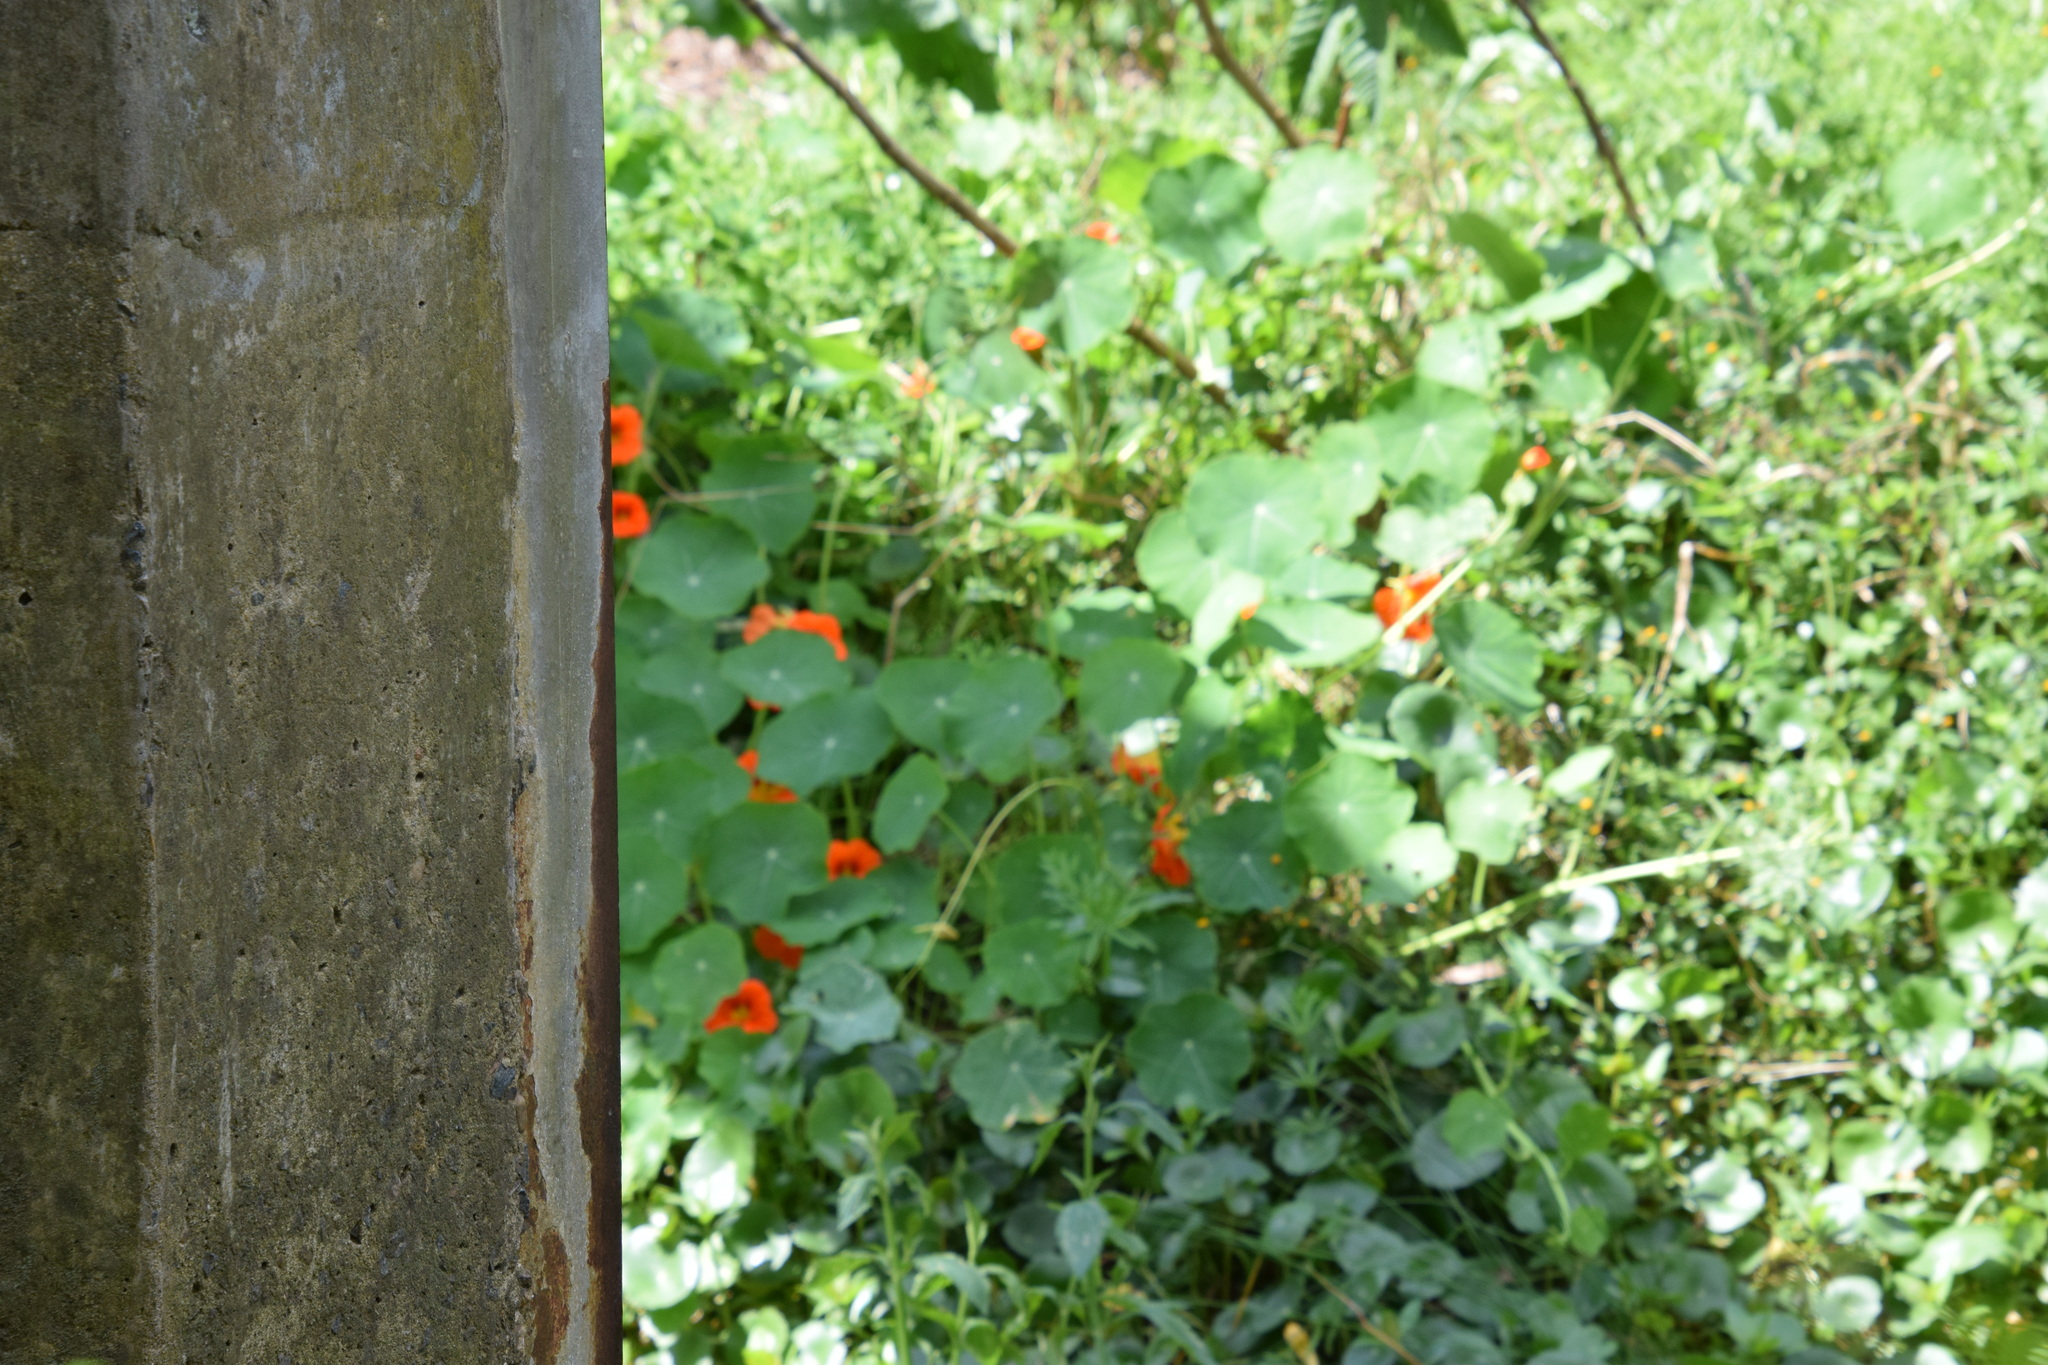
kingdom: Plantae
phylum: Tracheophyta
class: Magnoliopsida
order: Brassicales
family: Tropaeolaceae
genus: Tropaeolum
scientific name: Tropaeolum majus
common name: Nasturtium
